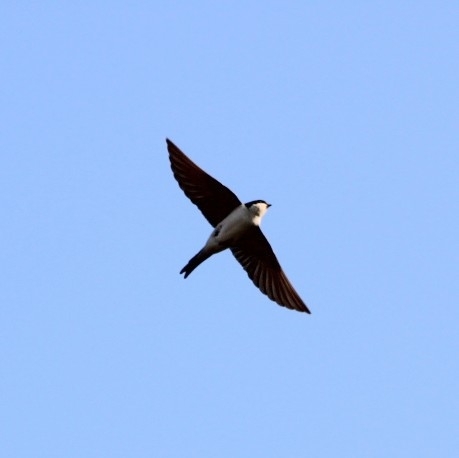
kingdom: Animalia
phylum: Chordata
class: Aves
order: Passeriformes
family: Hirundinidae
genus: Delichon
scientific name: Delichon urbicum
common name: Common house martin
